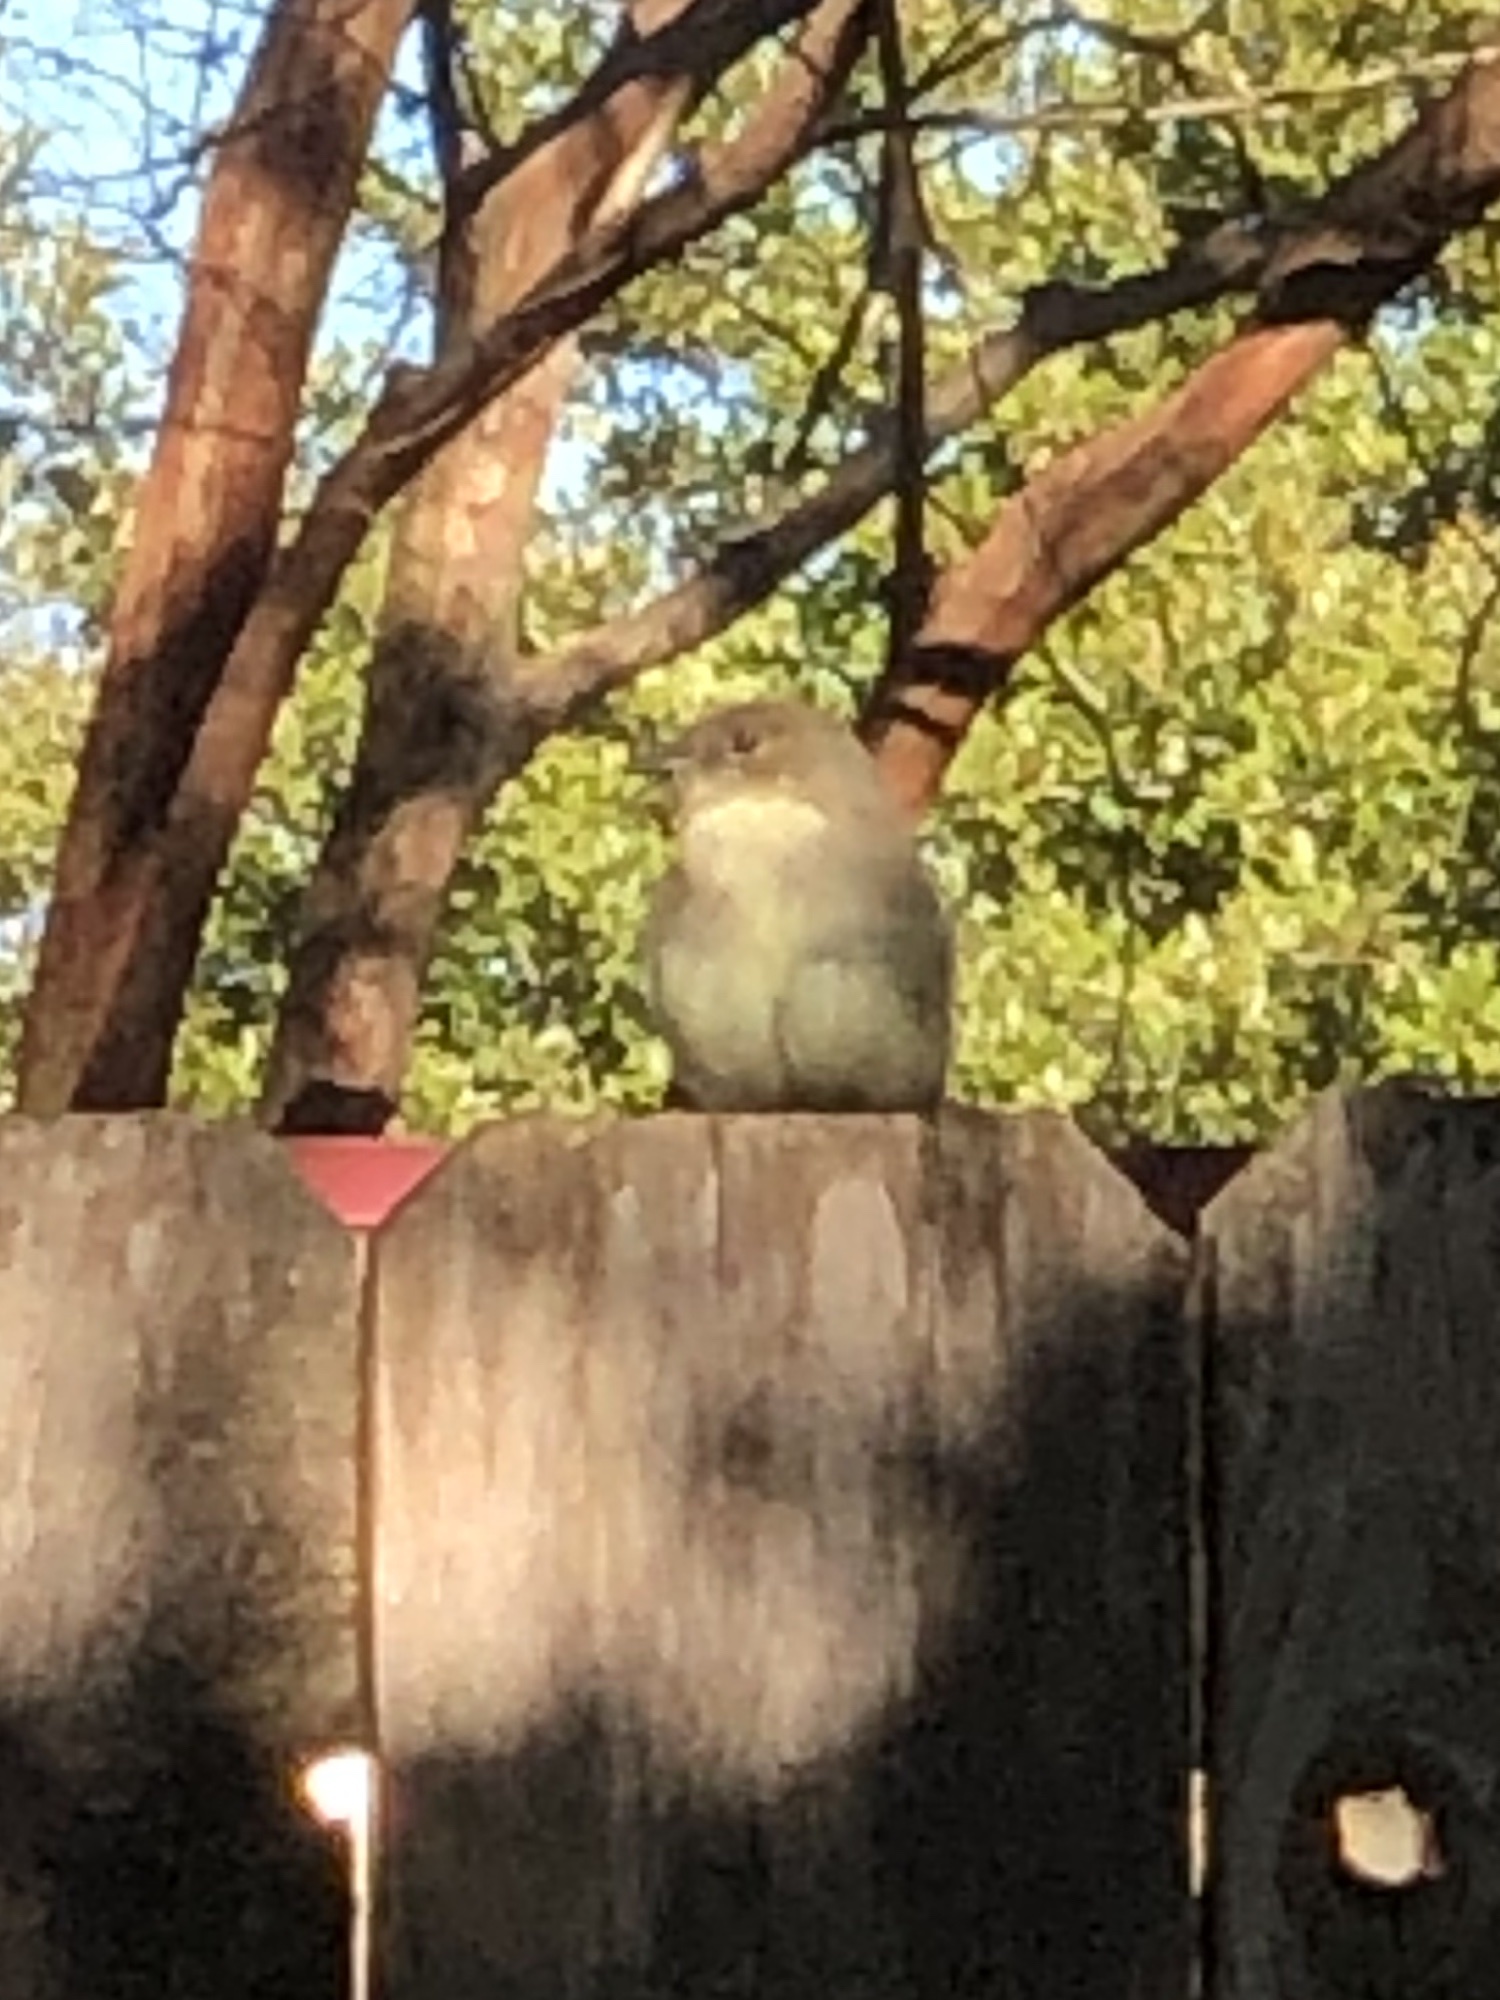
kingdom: Animalia
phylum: Chordata
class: Aves
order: Passeriformes
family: Tyrannidae
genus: Sayornis
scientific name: Sayornis phoebe
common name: Eastern phoebe
